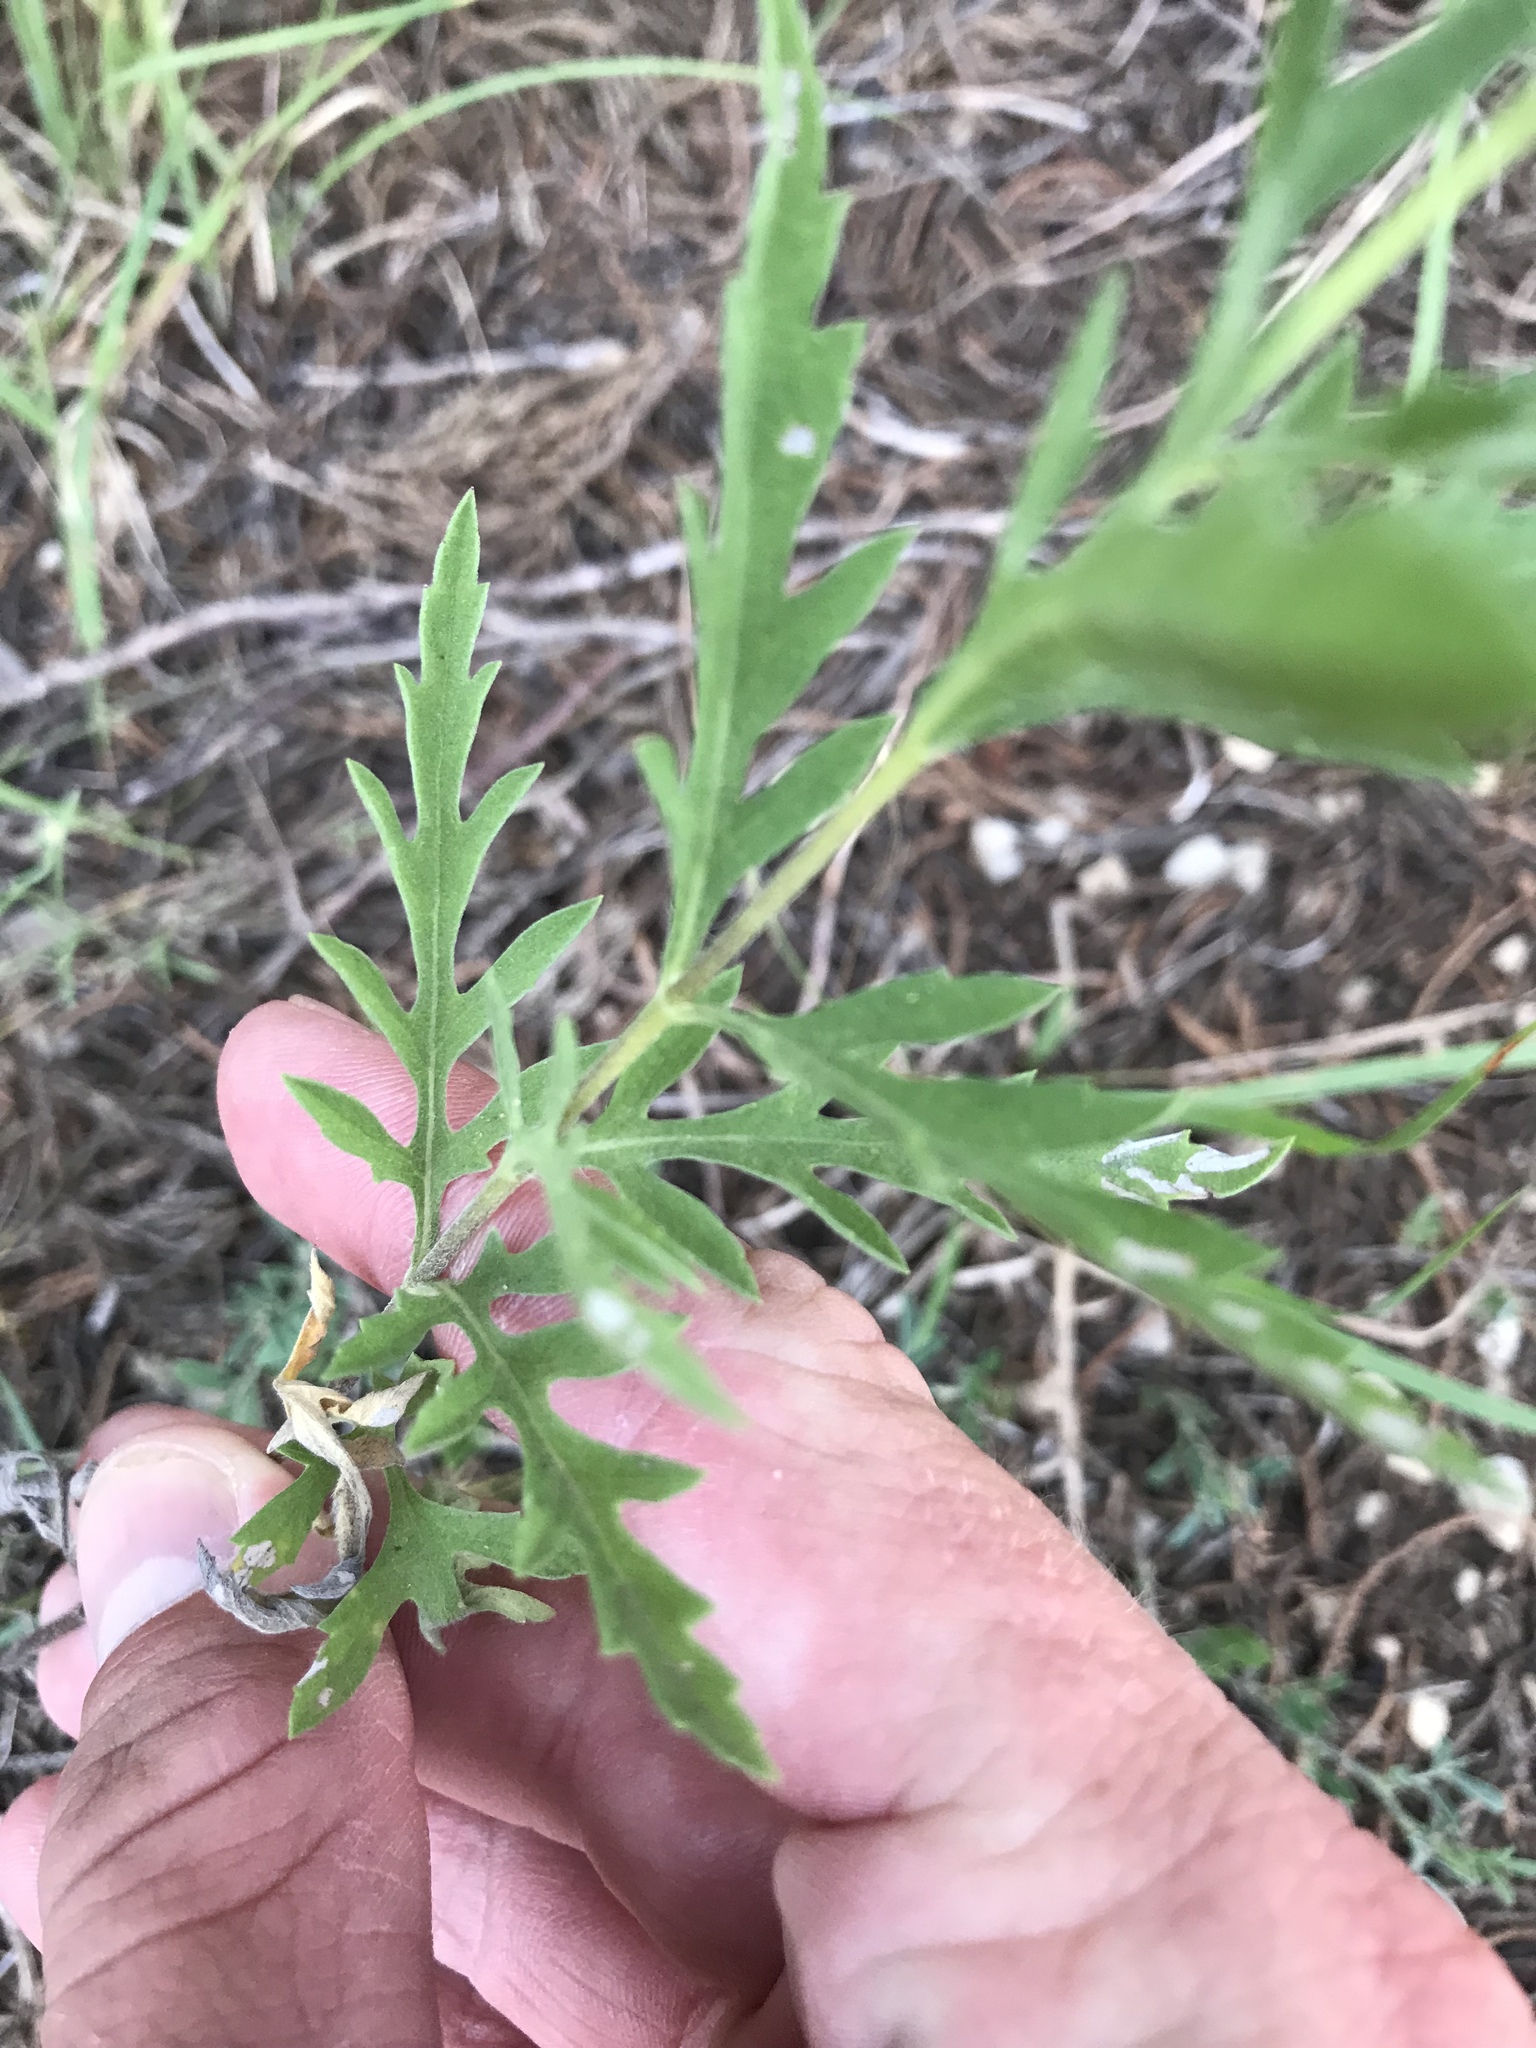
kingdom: Plantae
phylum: Tracheophyta
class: Magnoliopsida
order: Asterales
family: Asteraceae
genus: Ambrosia
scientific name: Ambrosia psilostachya
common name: Perennial ragweed
